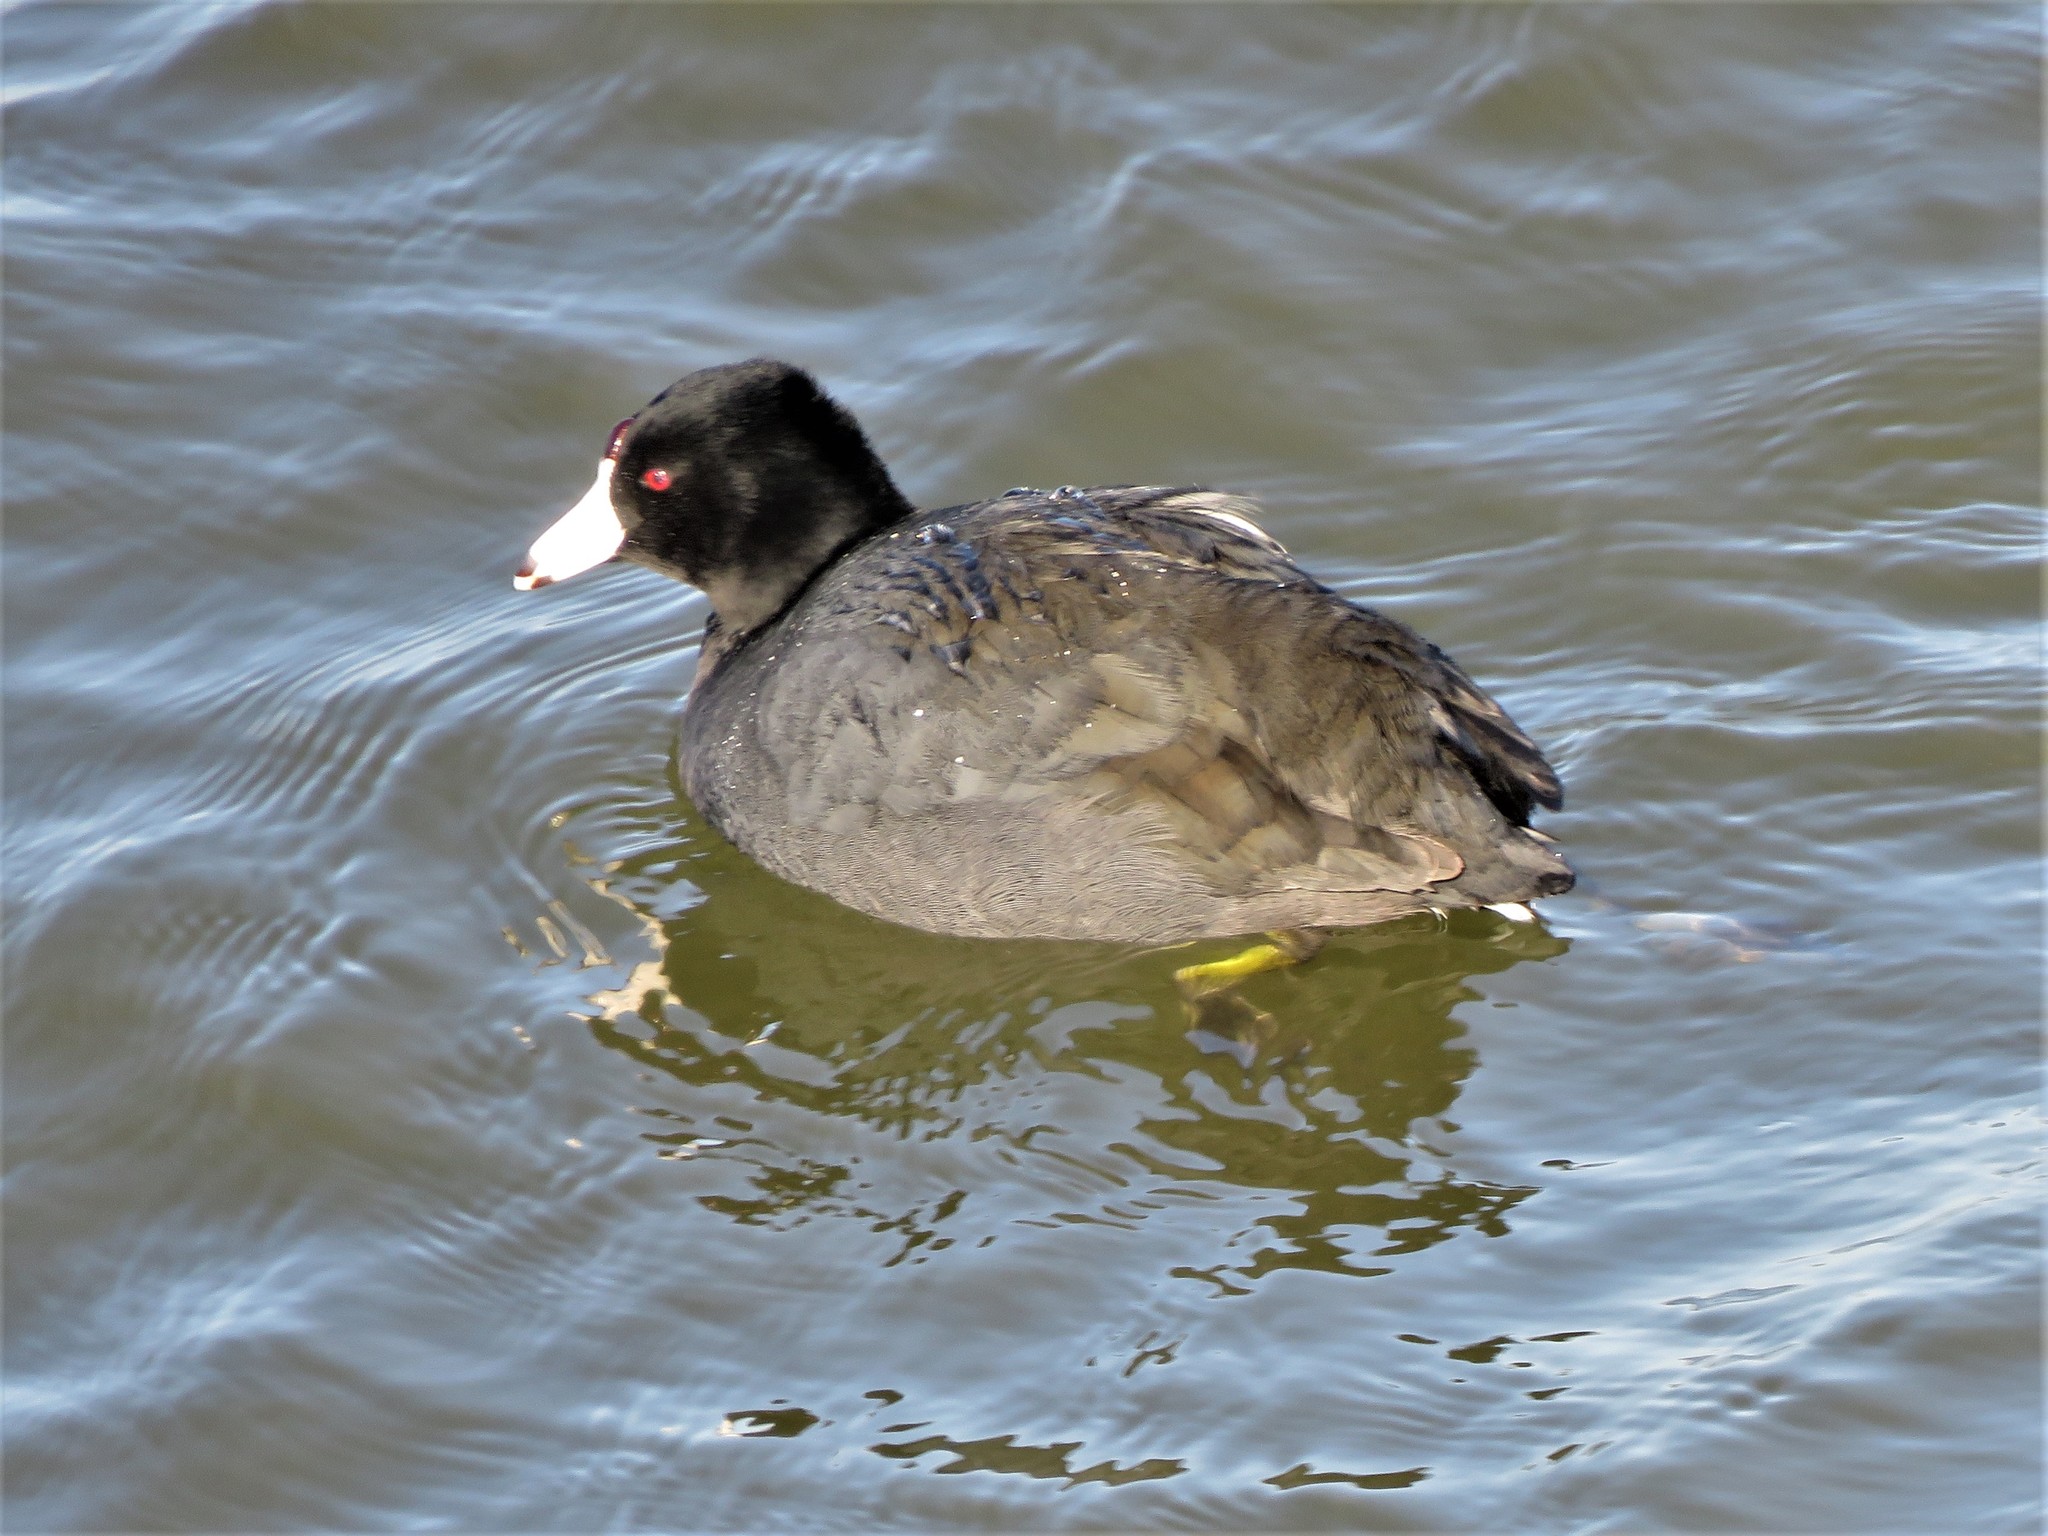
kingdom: Animalia
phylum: Chordata
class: Aves
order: Gruiformes
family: Rallidae
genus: Fulica
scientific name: Fulica americana
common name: American coot
